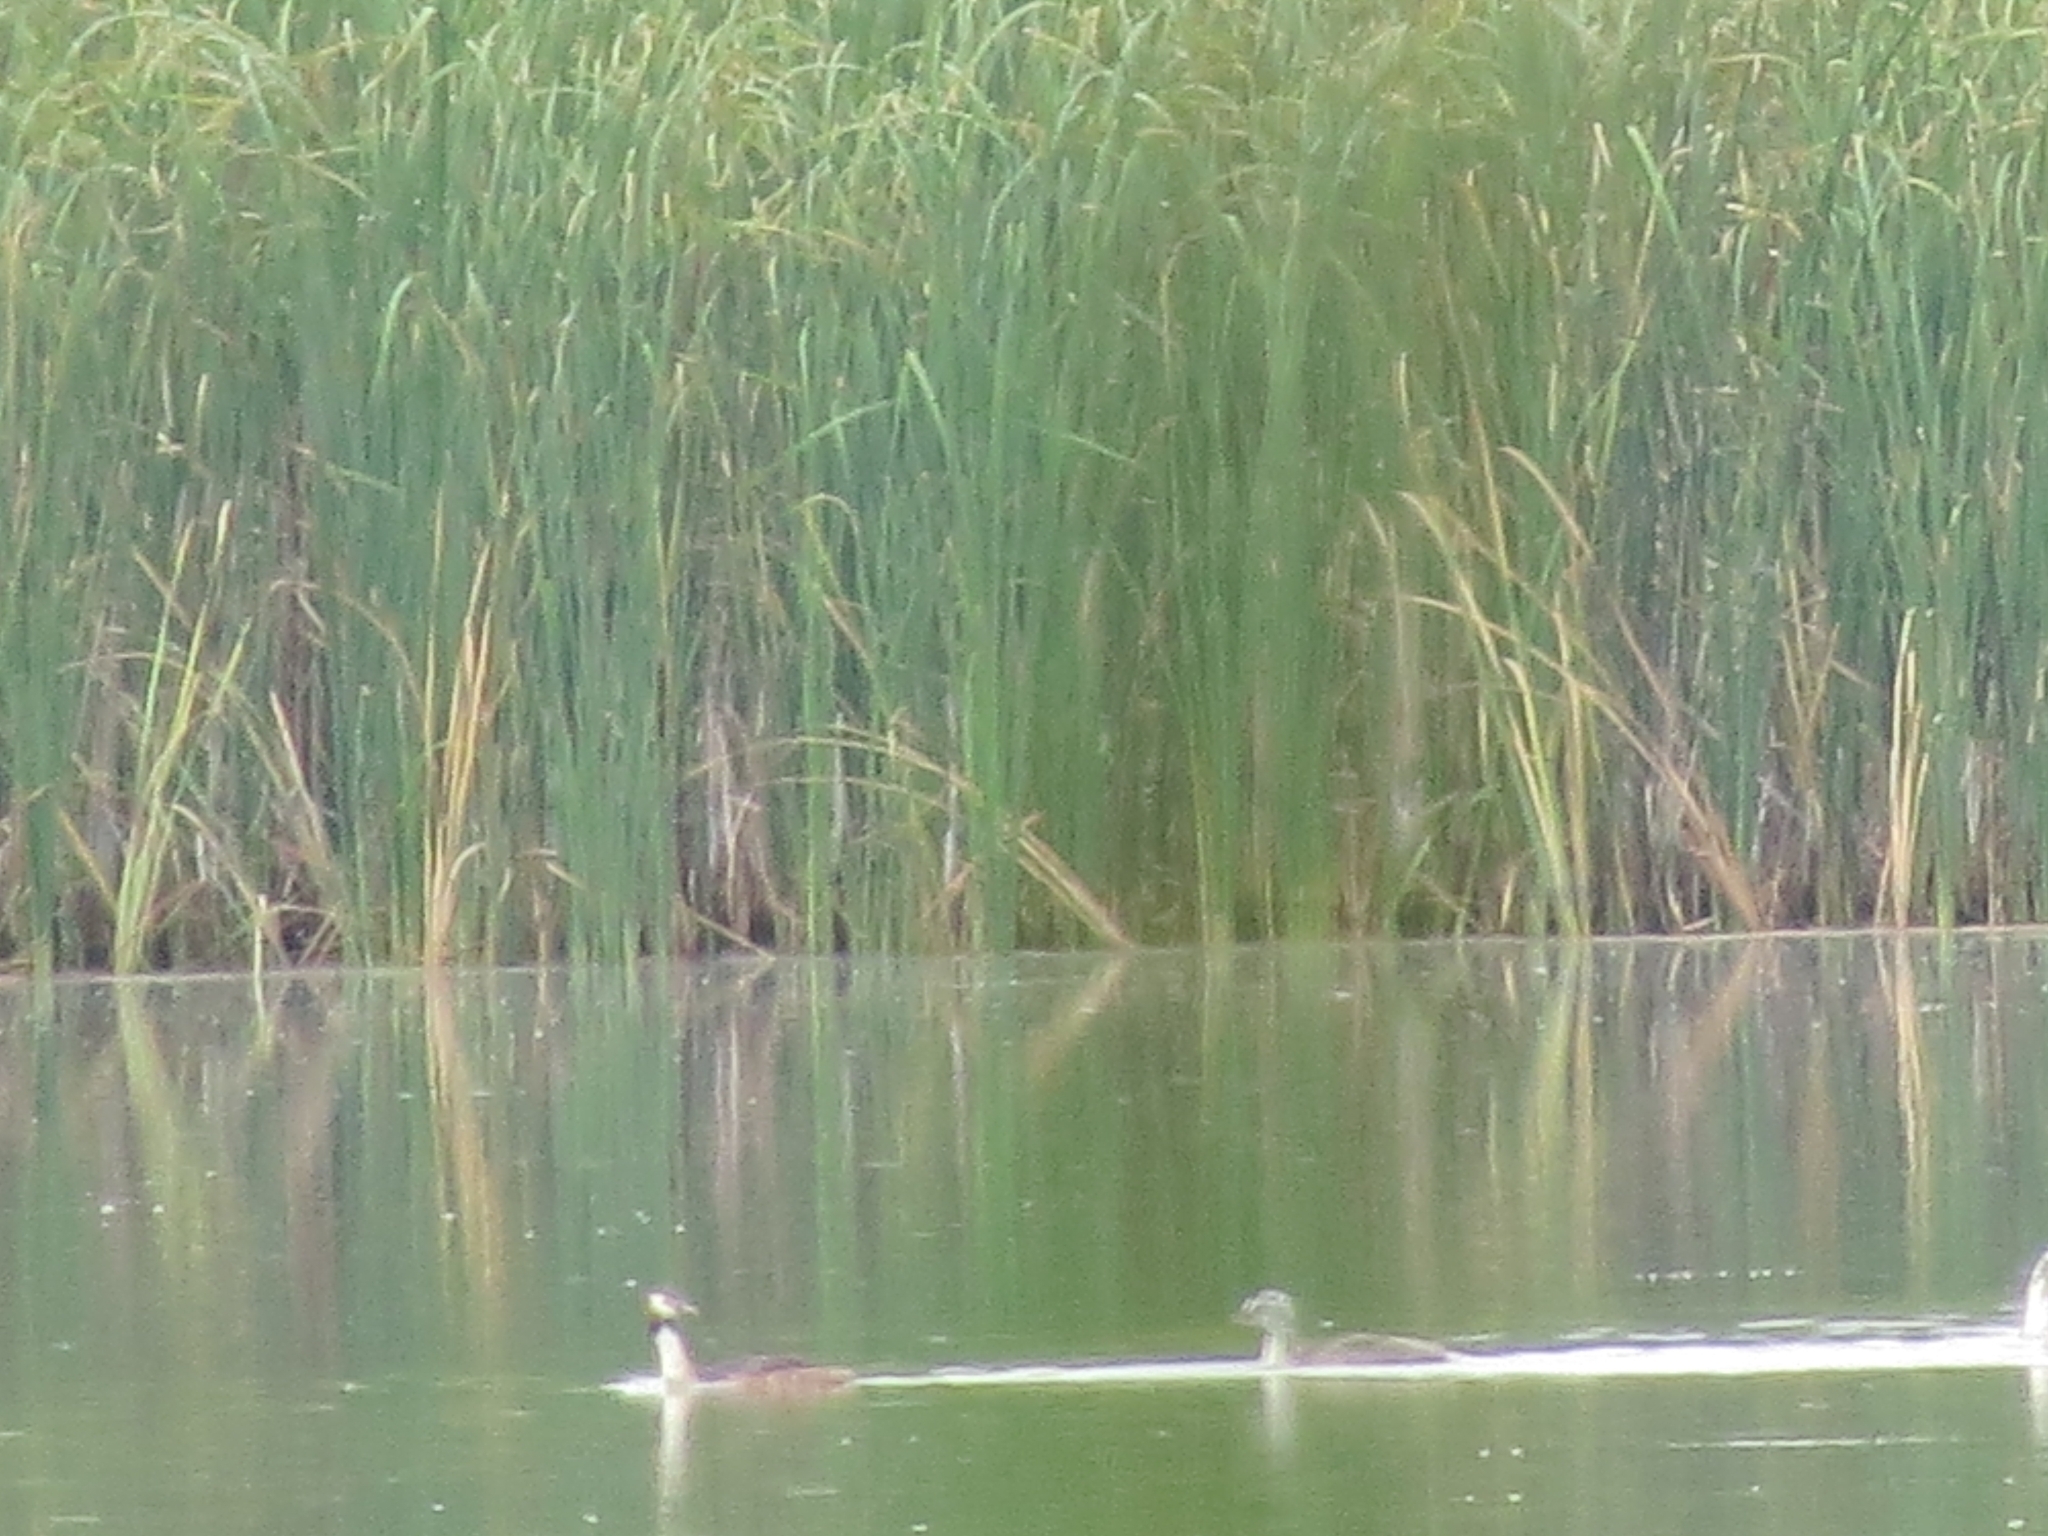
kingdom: Animalia
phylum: Chordata
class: Aves
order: Podicipediformes
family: Podicipedidae
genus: Podiceps
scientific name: Podiceps cristatus
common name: Great crested grebe
